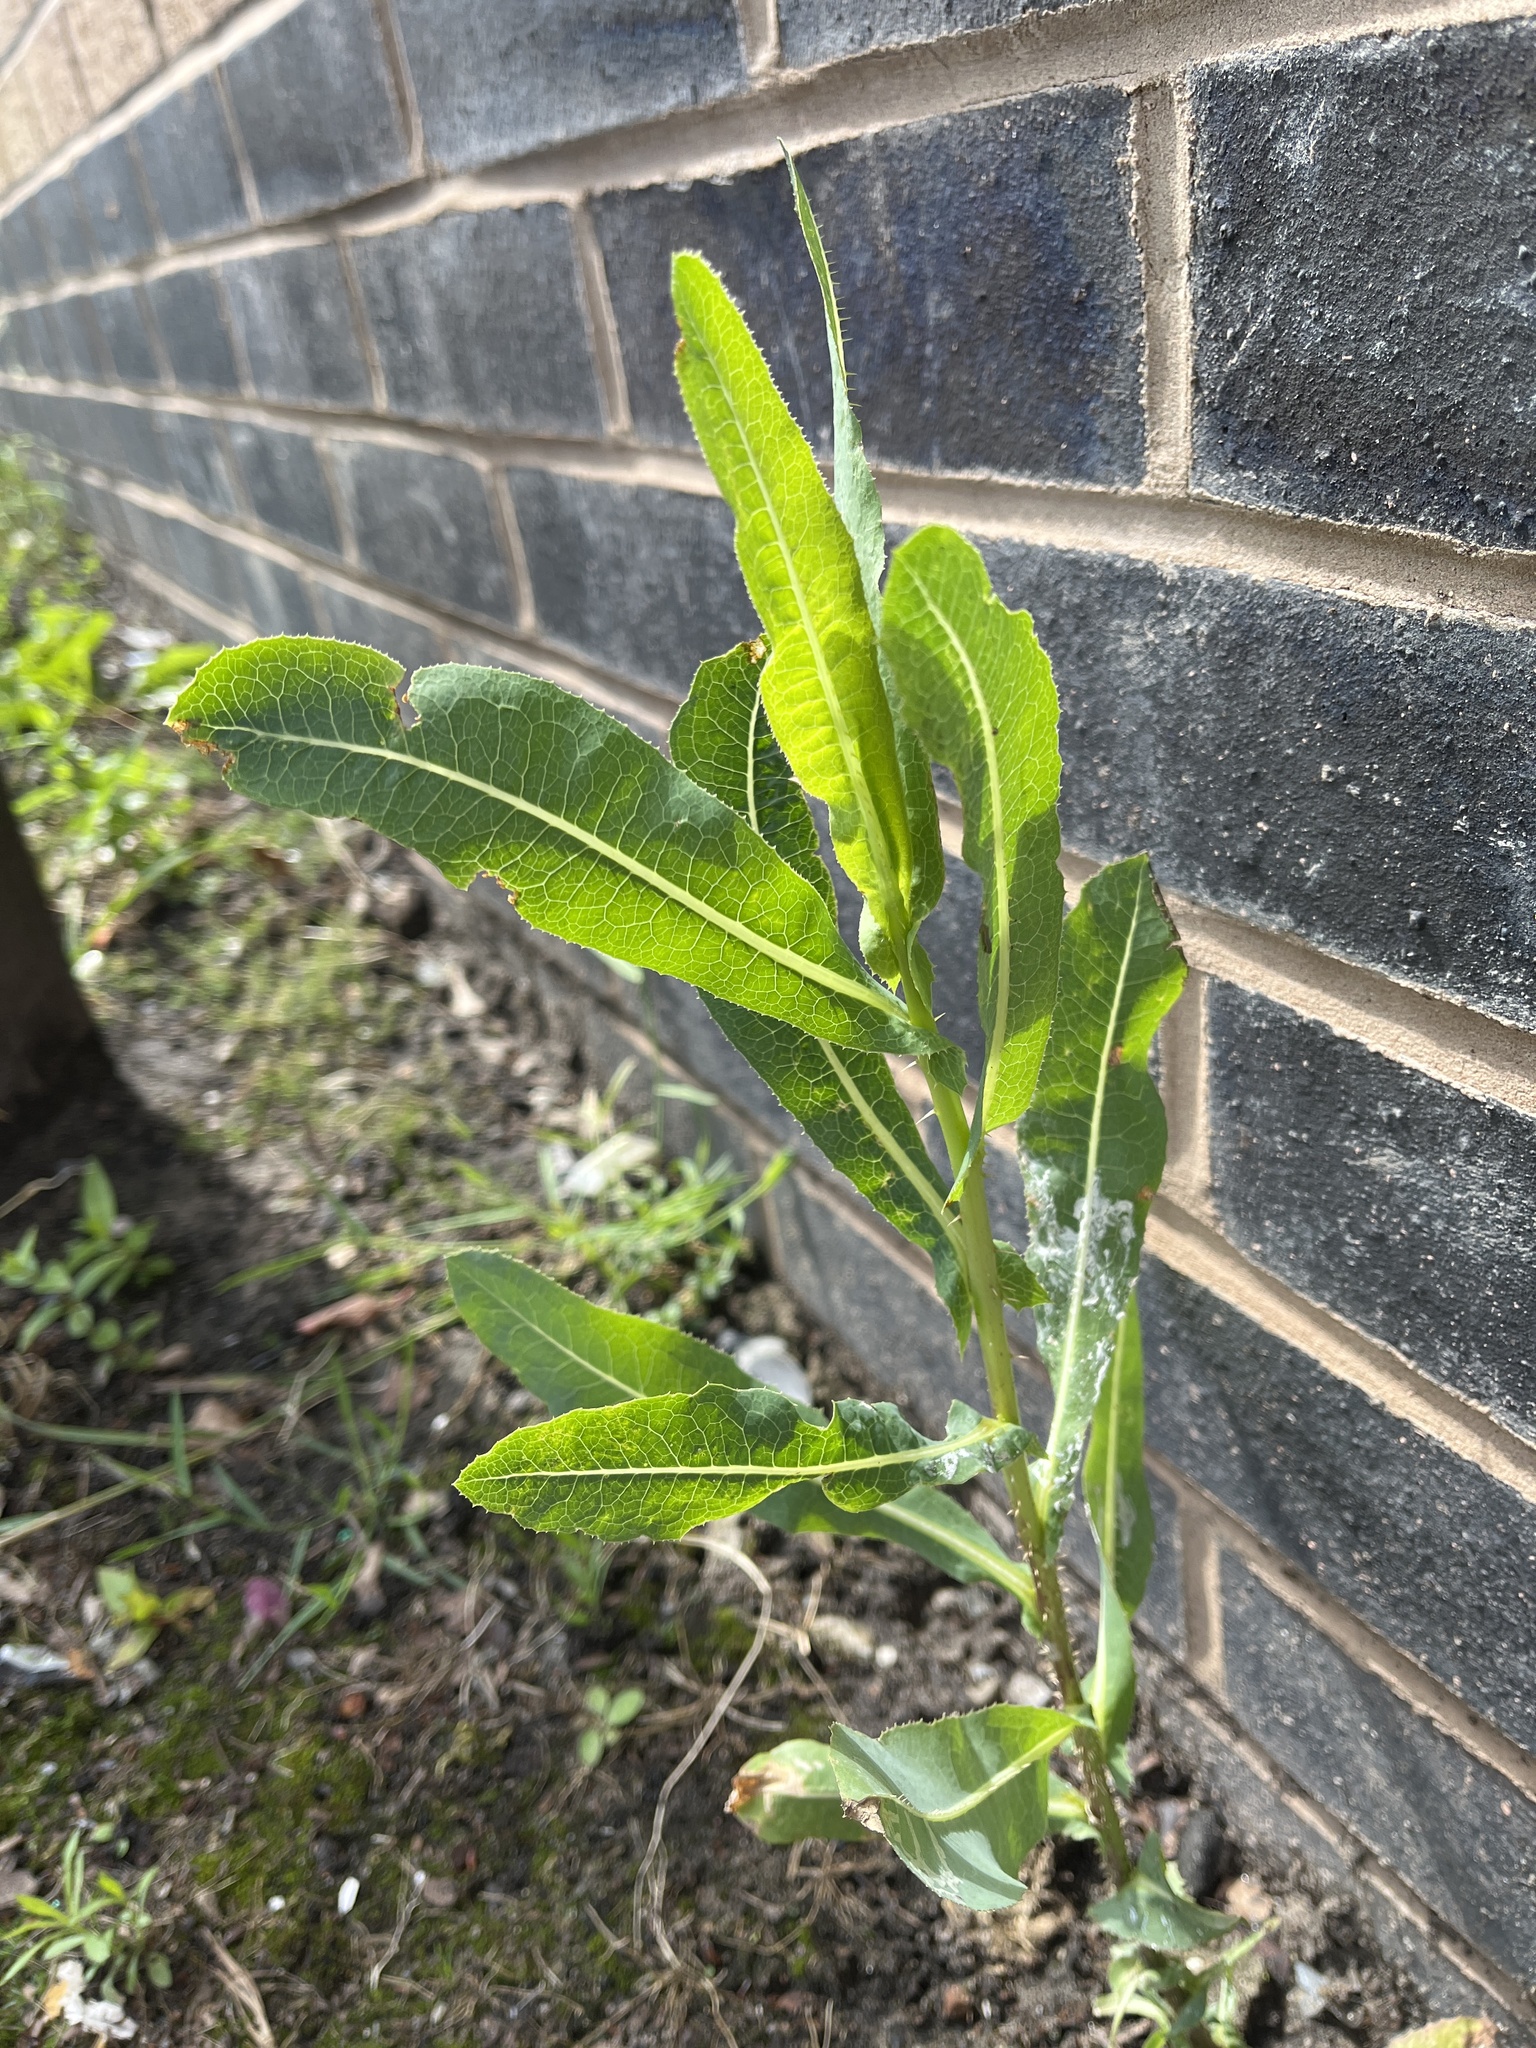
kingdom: Plantae
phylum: Tracheophyta
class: Magnoliopsida
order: Asterales
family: Asteraceae
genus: Lactuca
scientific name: Lactuca serriola
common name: Prickly lettuce
